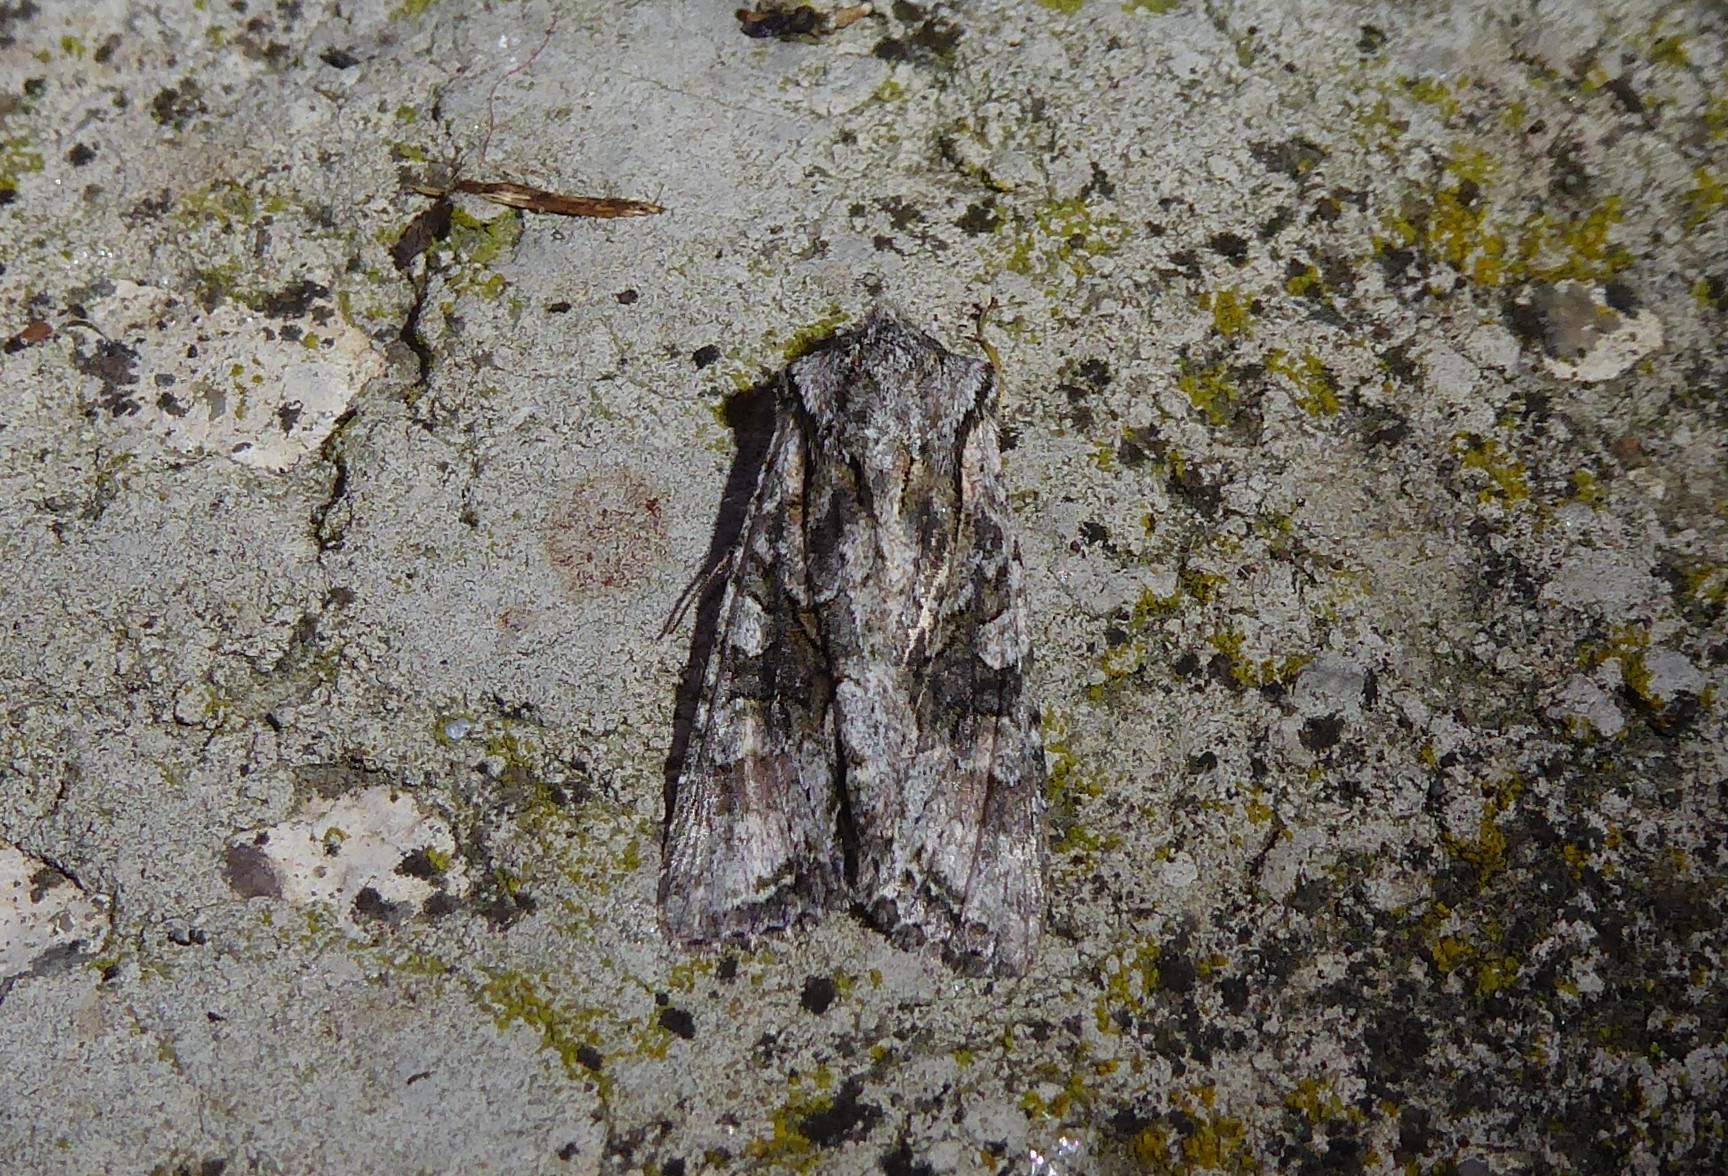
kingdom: Animalia
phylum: Arthropoda
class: Insecta
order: Lepidoptera
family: Noctuidae
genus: Ichneutica
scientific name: Ichneutica mutans
